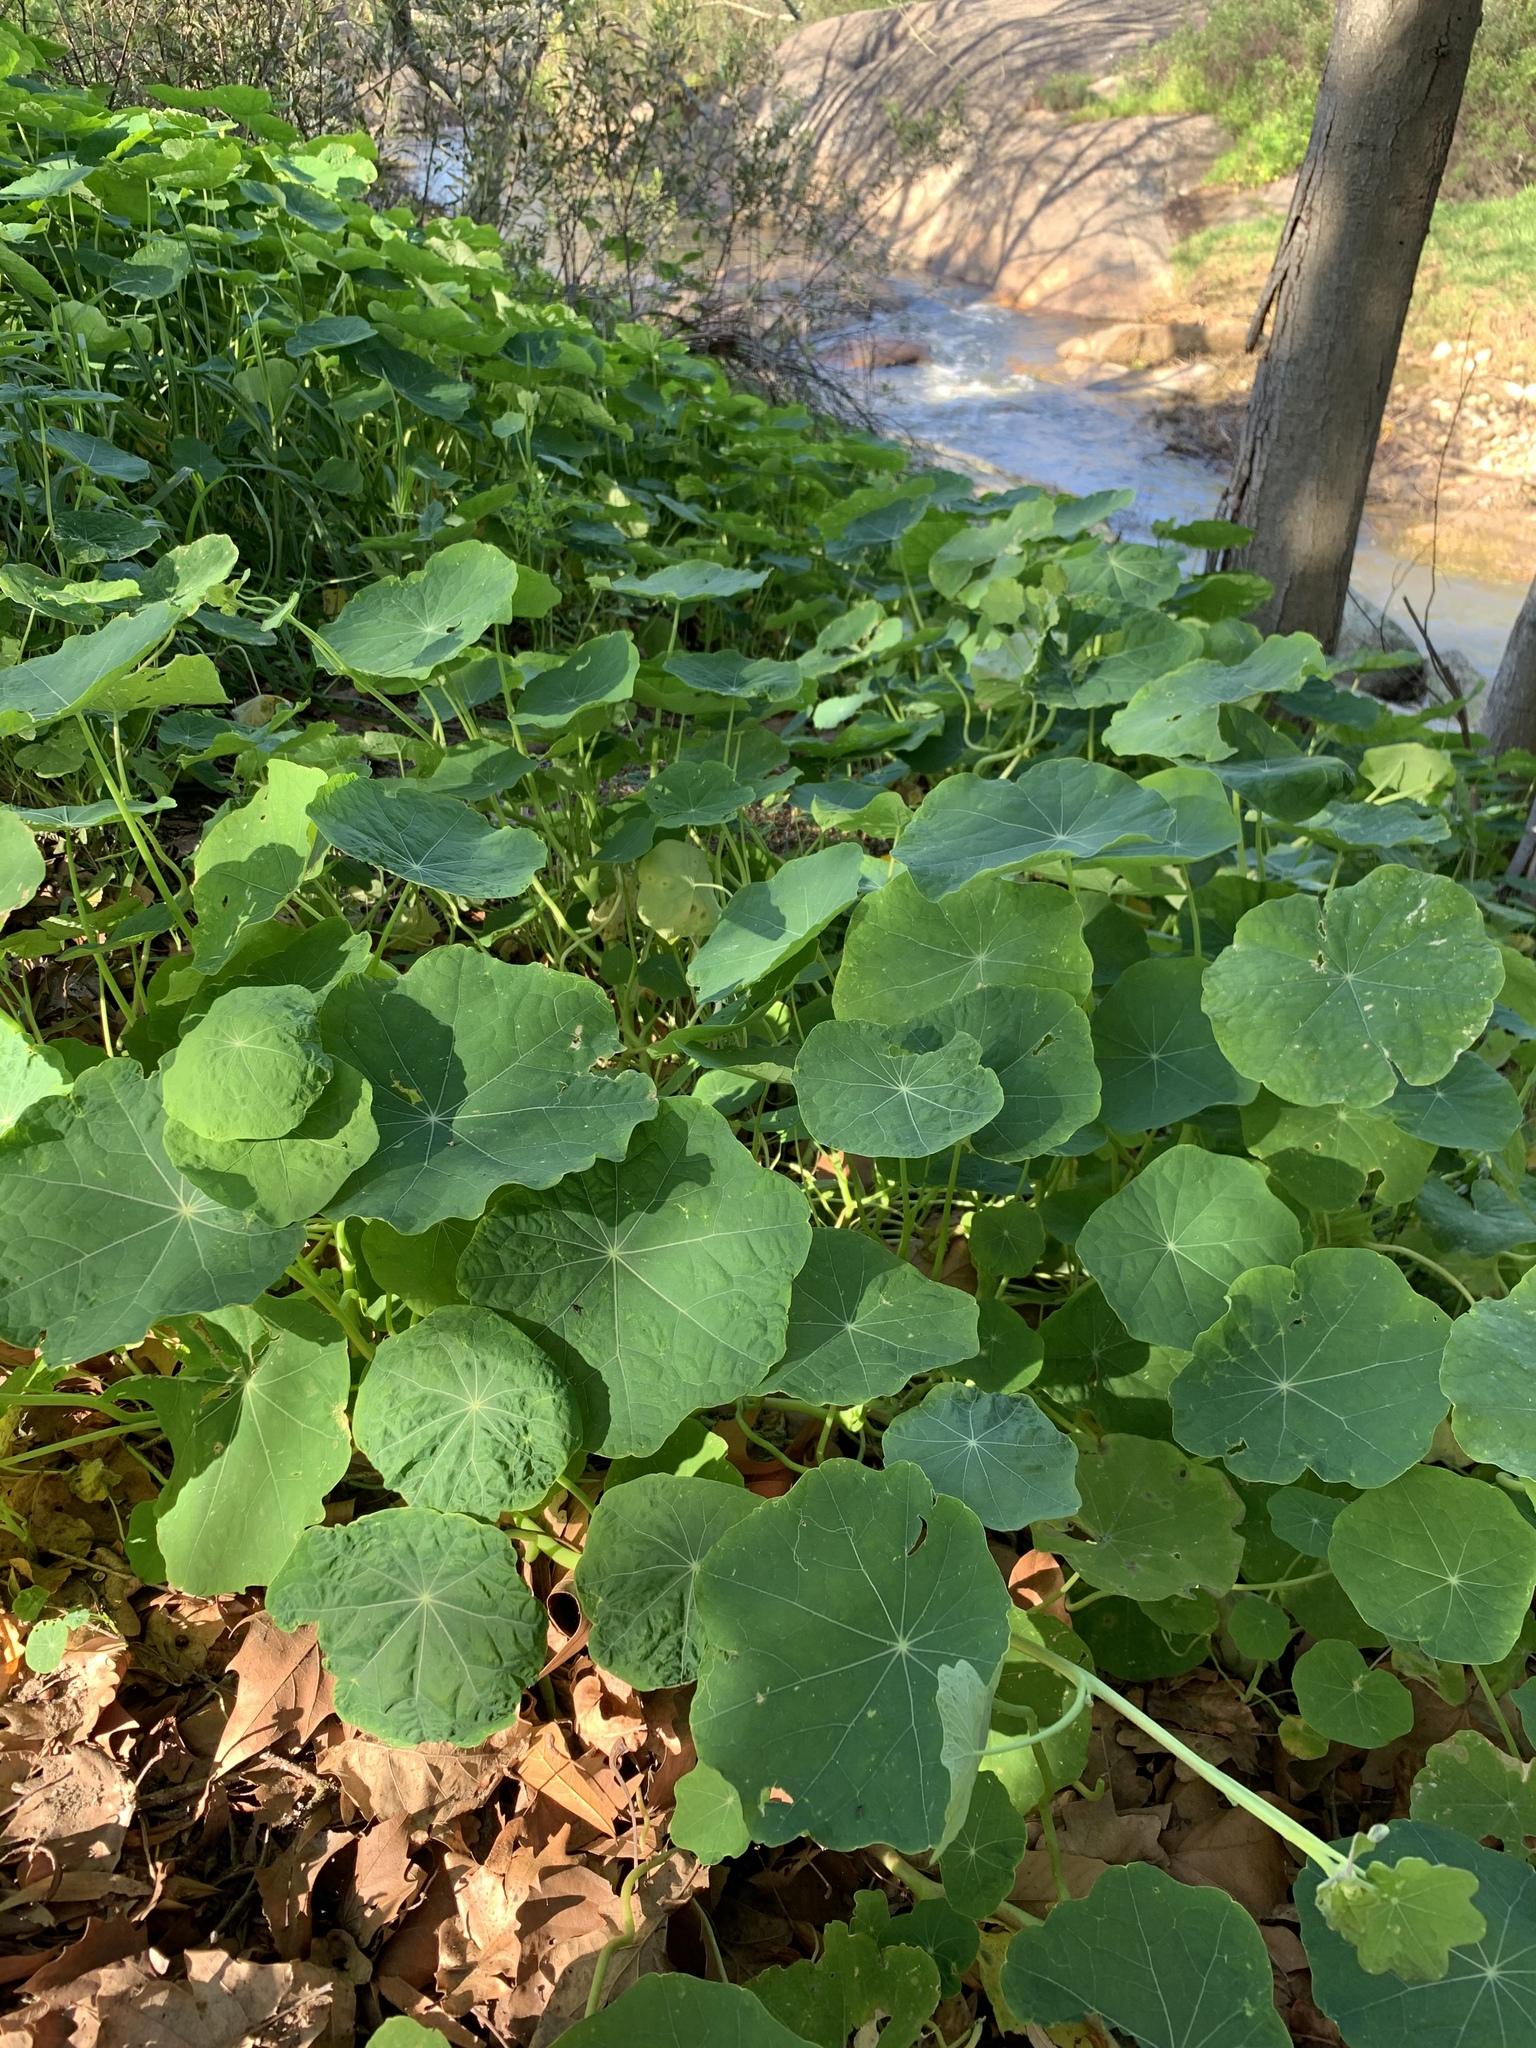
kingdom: Plantae
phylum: Tracheophyta
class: Magnoliopsida
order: Brassicales
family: Tropaeolaceae
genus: Tropaeolum
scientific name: Tropaeolum majus
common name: Nasturtium
